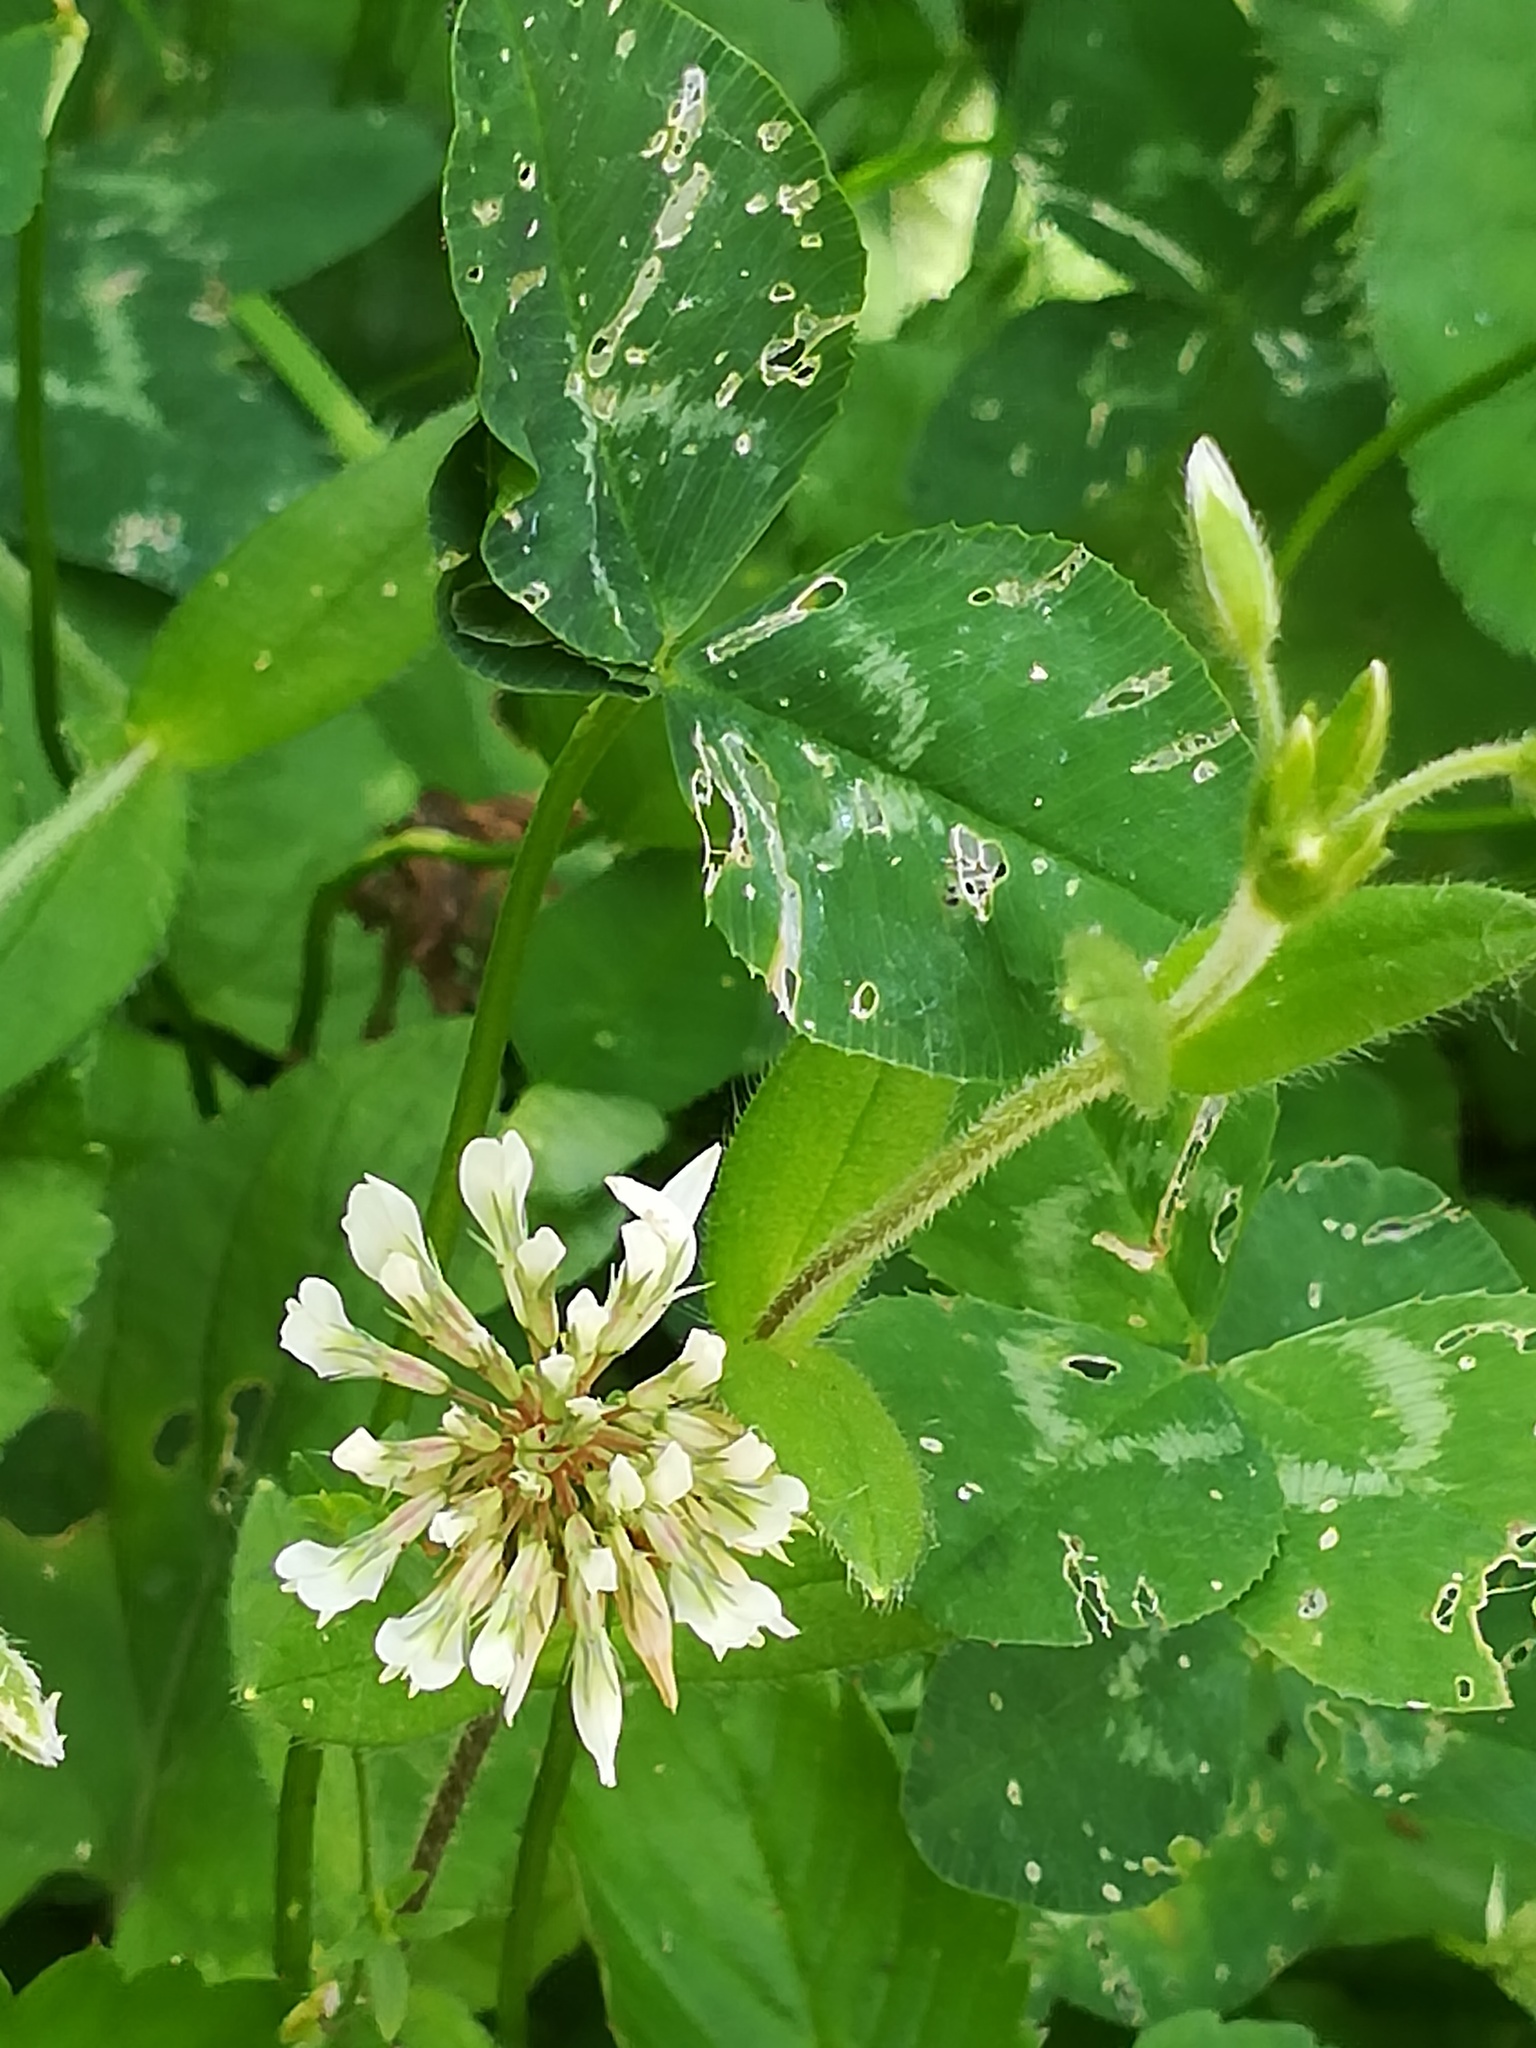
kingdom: Plantae
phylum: Tracheophyta
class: Magnoliopsida
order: Fabales
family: Fabaceae
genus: Trifolium
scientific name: Trifolium repens
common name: White clover
